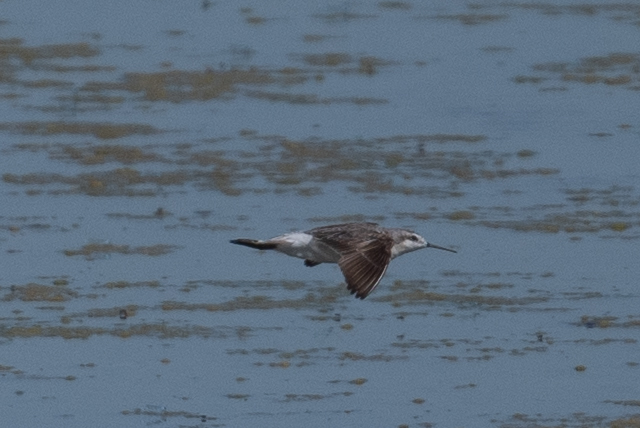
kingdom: Animalia
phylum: Chordata
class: Aves
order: Charadriiformes
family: Scolopacidae
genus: Phalaropus
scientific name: Phalaropus tricolor
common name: Wilson's phalarope
